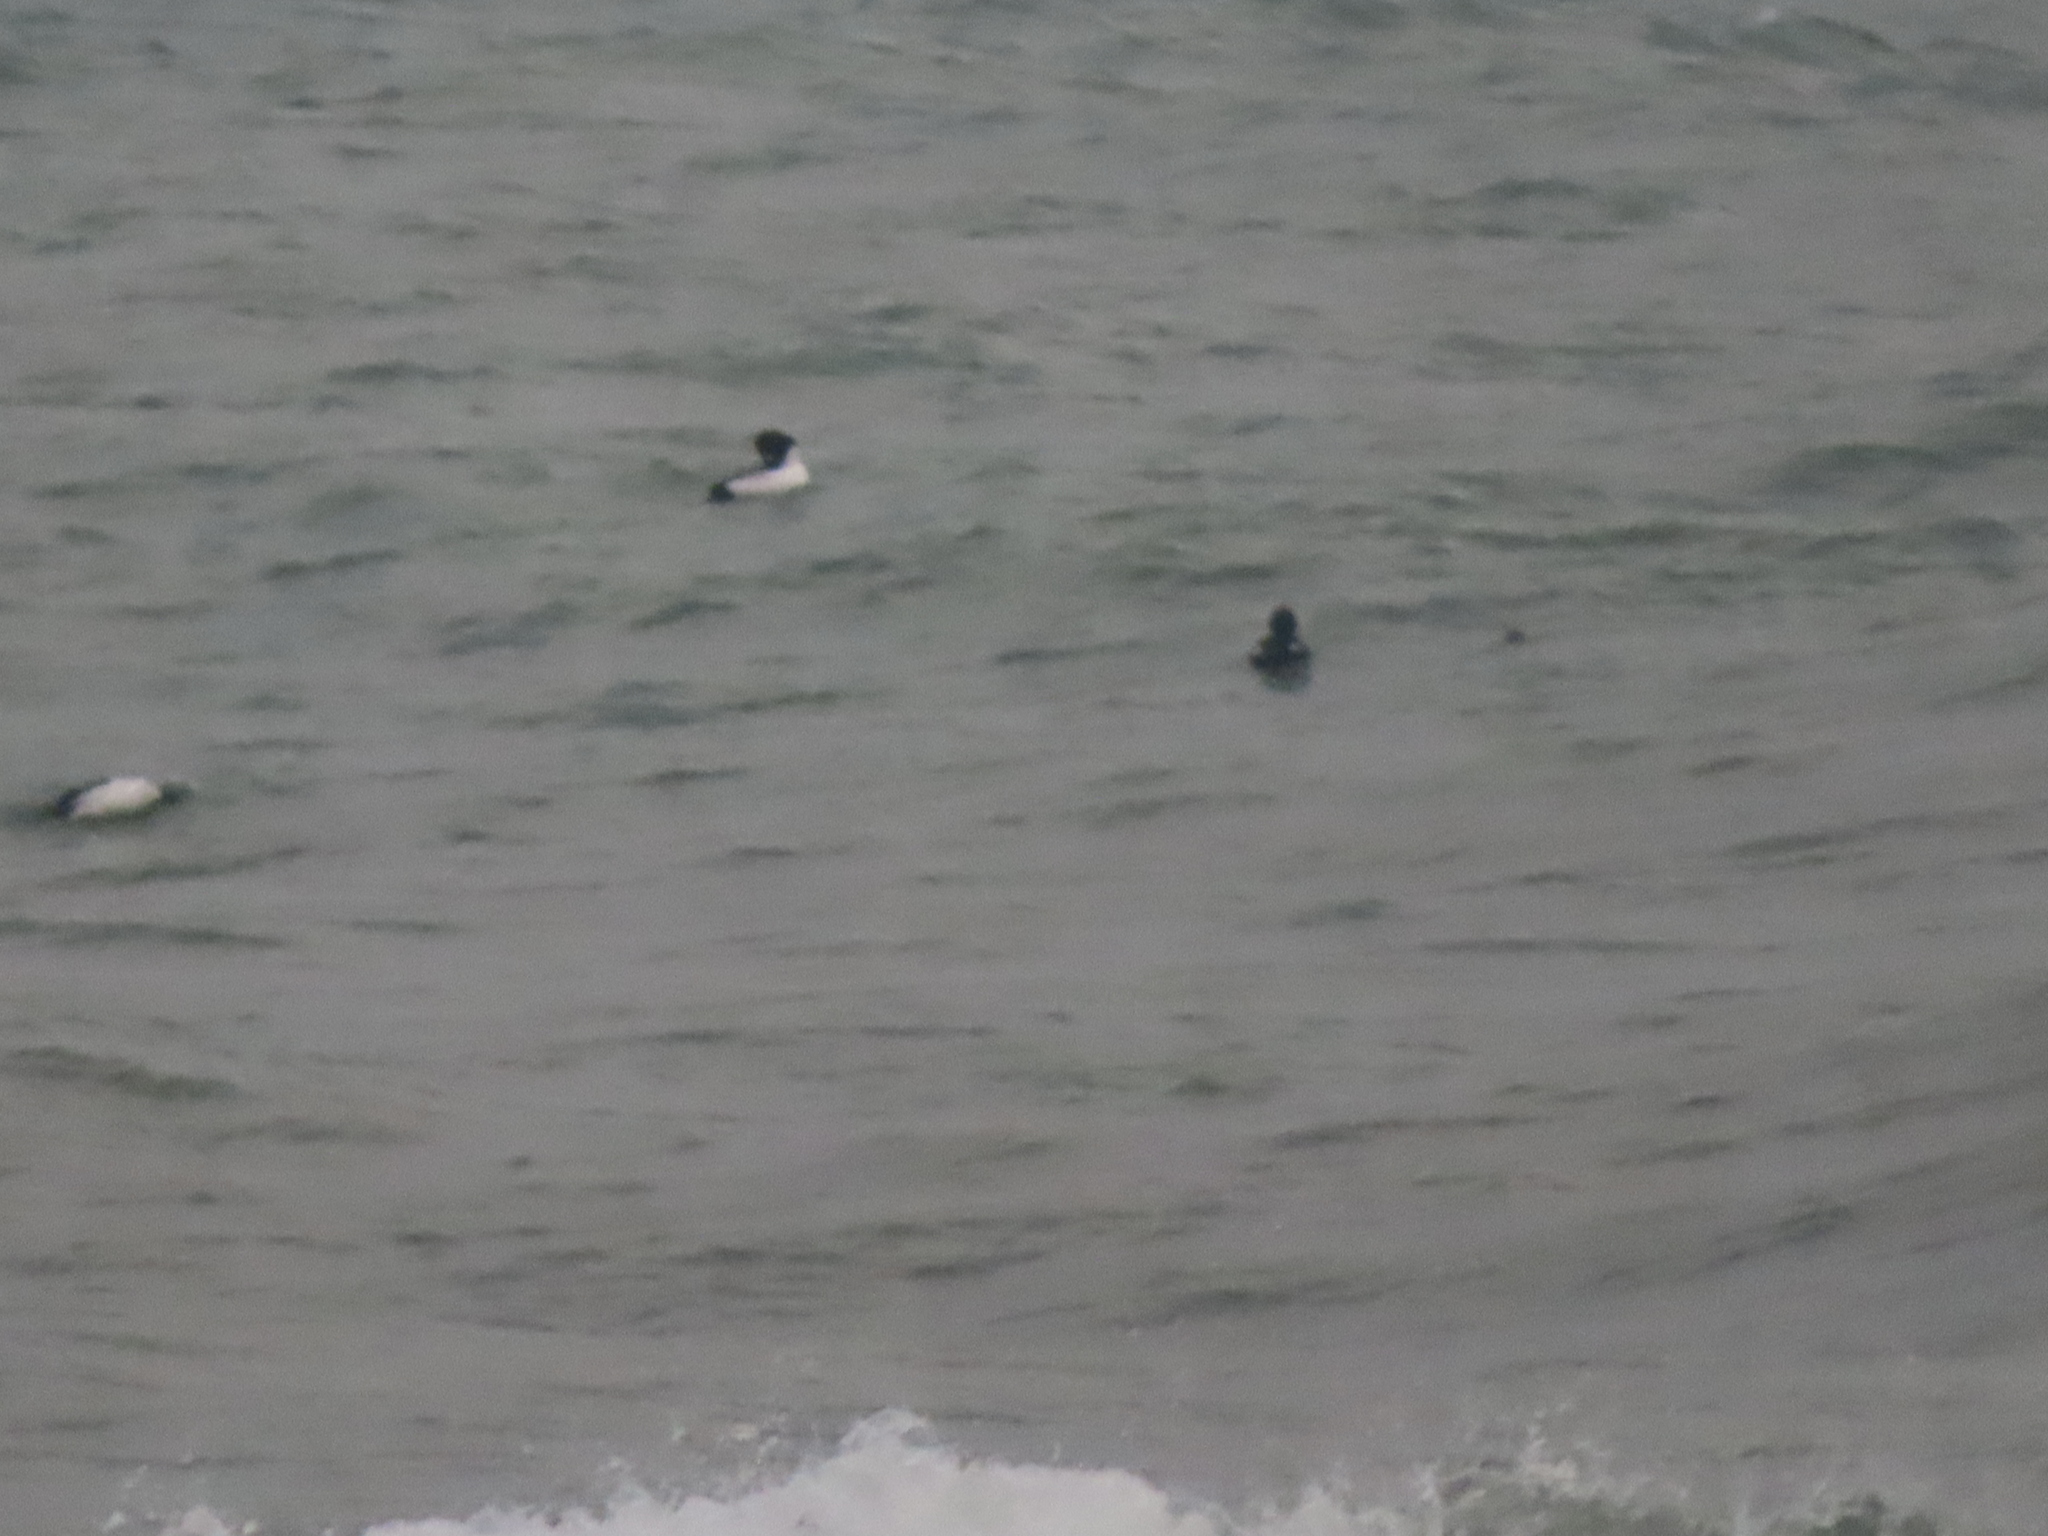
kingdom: Animalia
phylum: Chordata
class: Aves
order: Anseriformes
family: Anatidae
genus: Bucephala
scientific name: Bucephala clangula
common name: Common goldeneye
